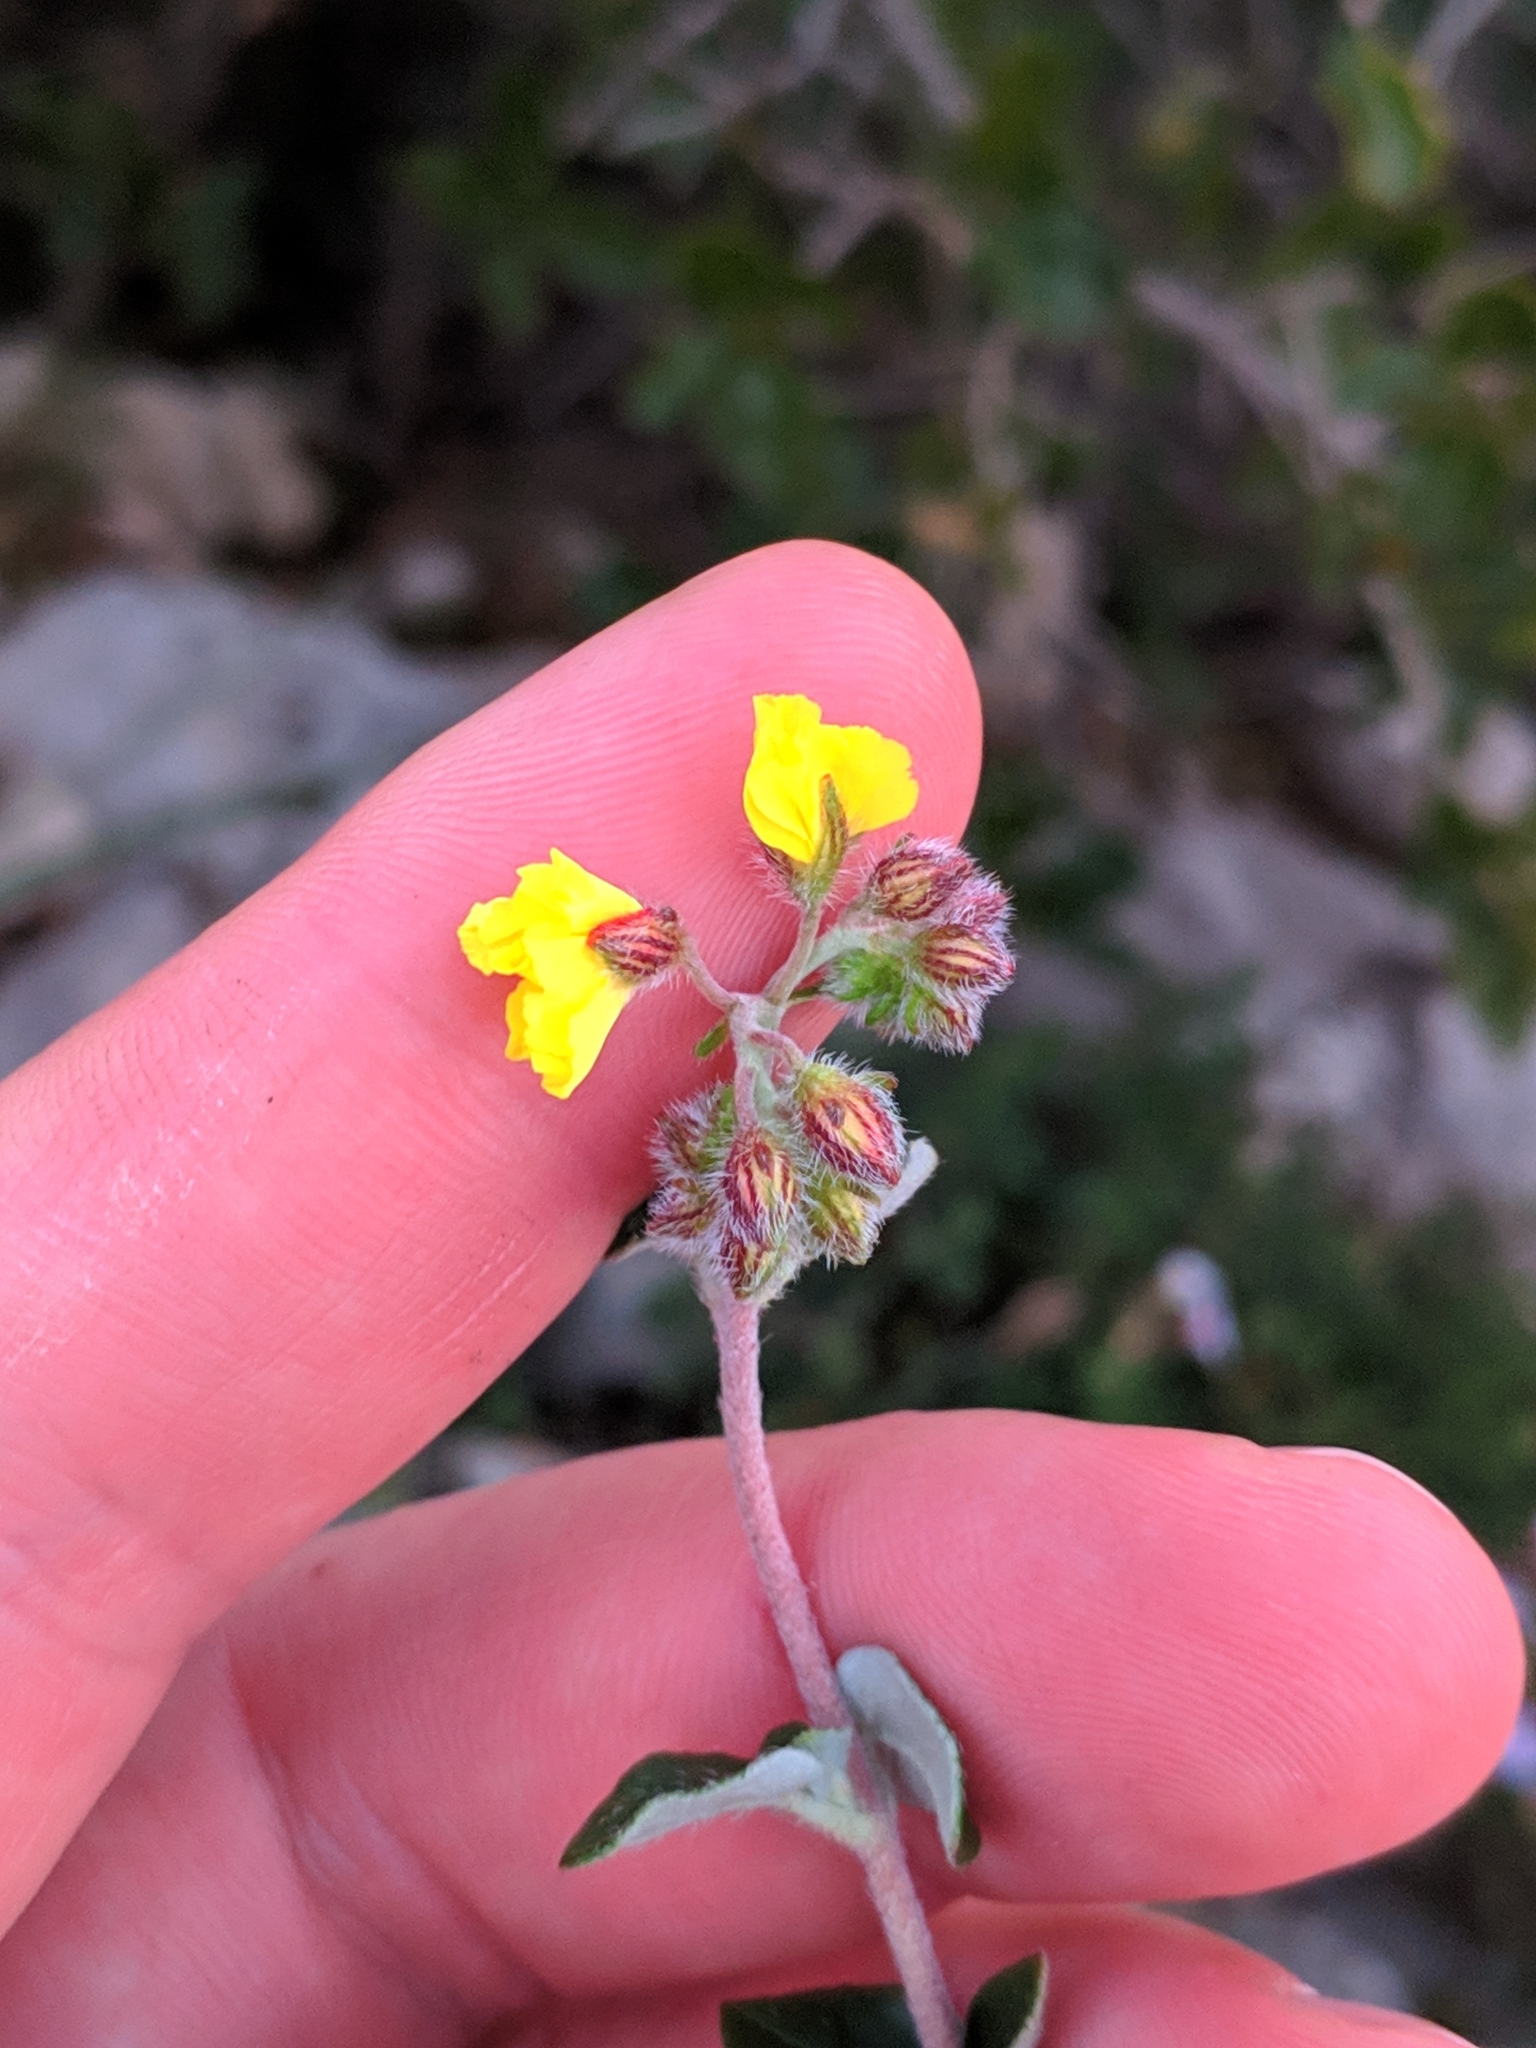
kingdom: Plantae
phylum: Tracheophyta
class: Magnoliopsida
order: Malvales
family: Cistaceae
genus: Helianthemum
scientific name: Helianthemum cinereum
